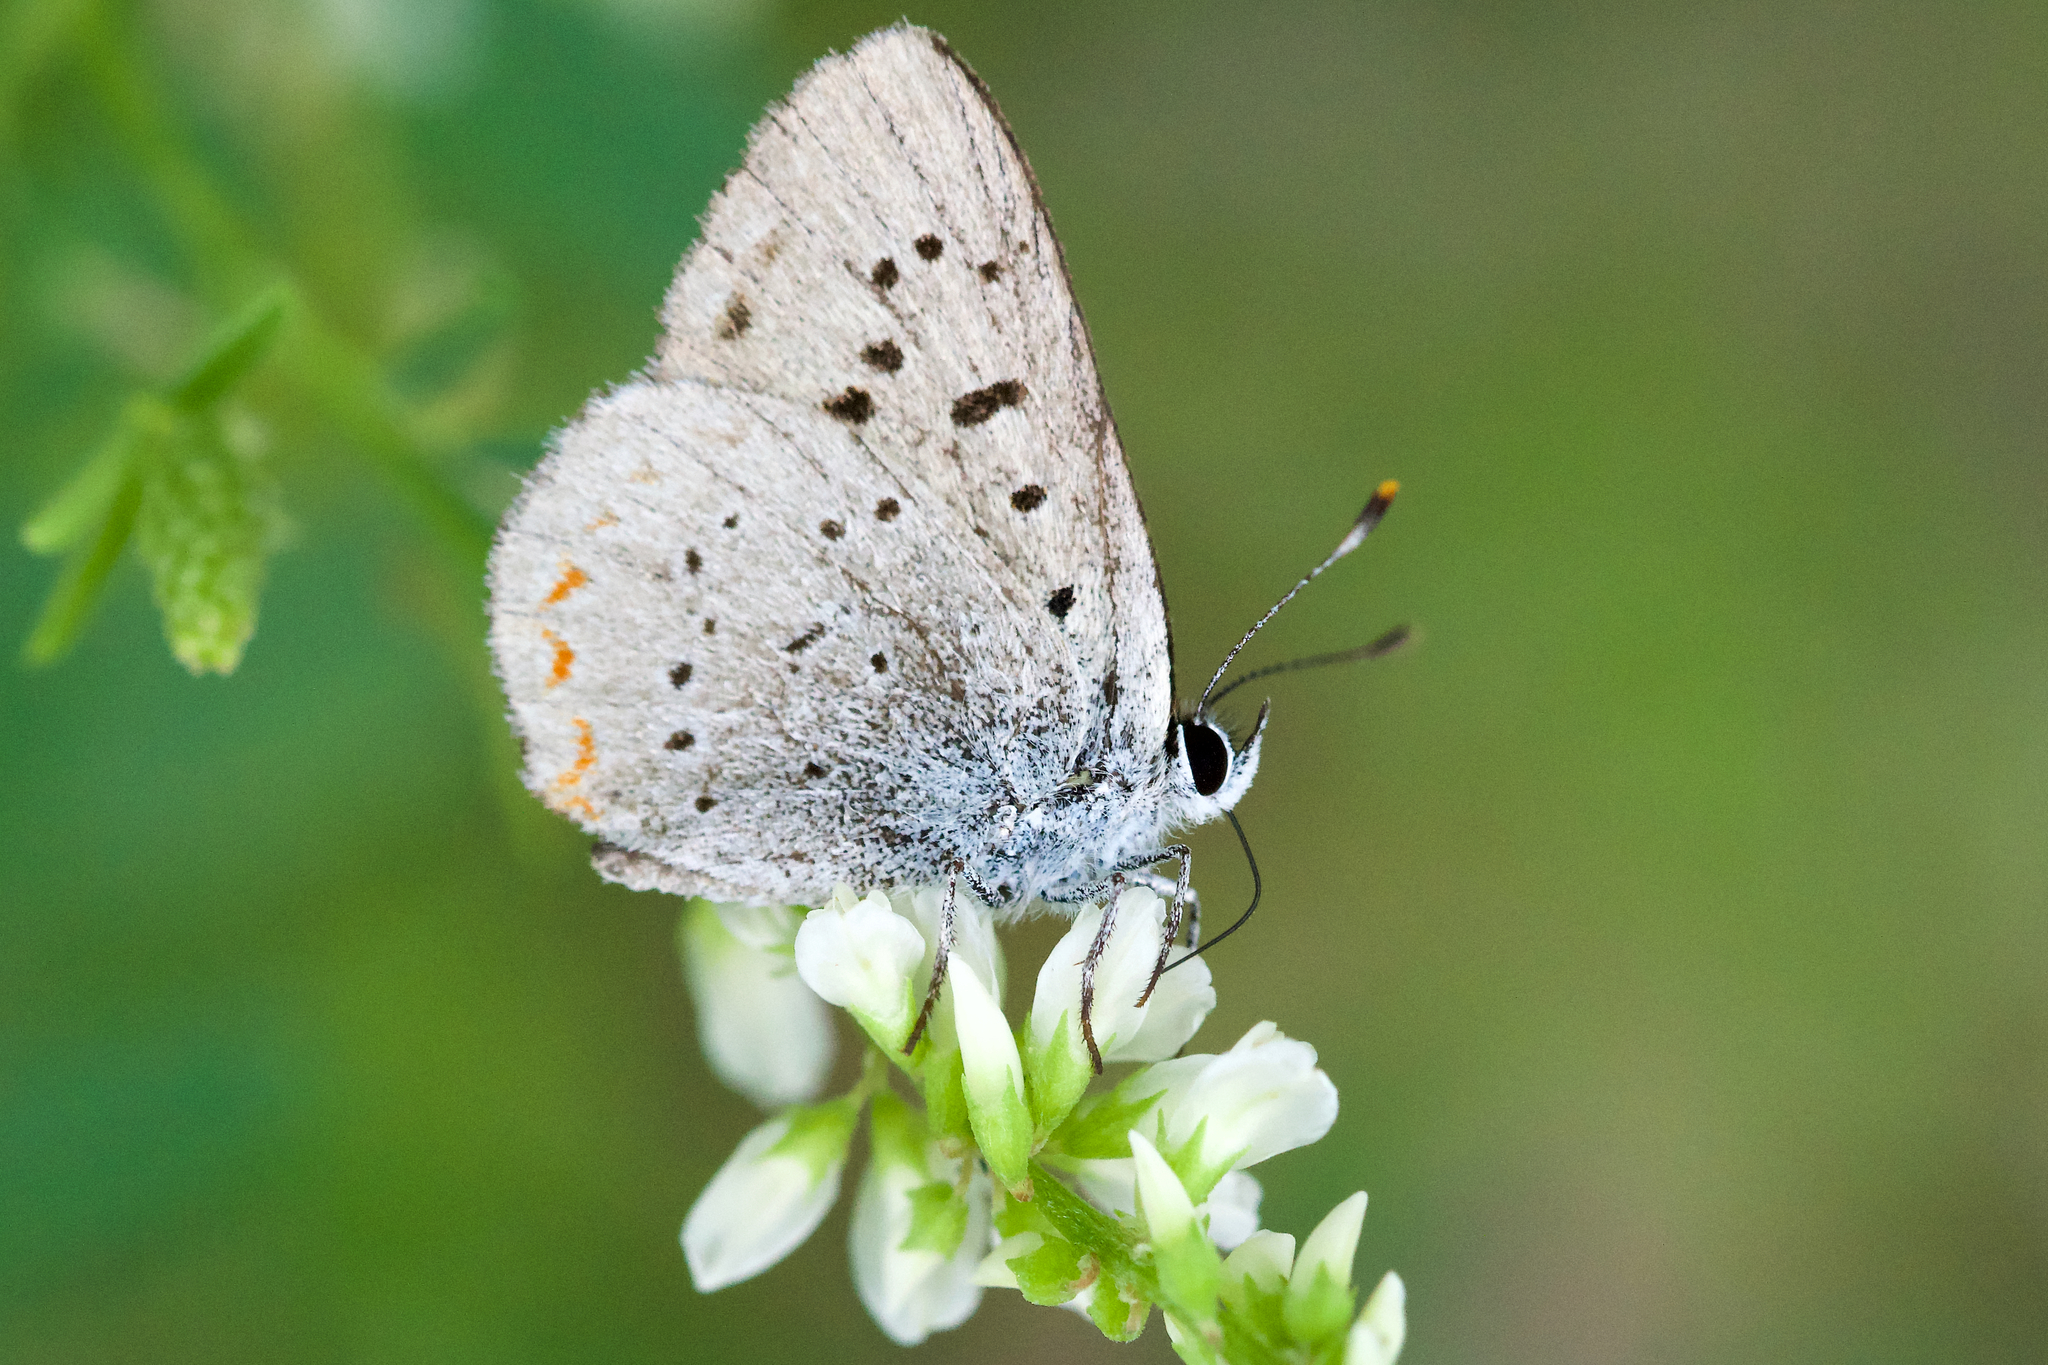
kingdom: Animalia
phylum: Arthropoda
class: Insecta
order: Lepidoptera
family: Lycaenidae
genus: Tharsalea
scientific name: Tharsalea epixanthe
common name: Bog copper
